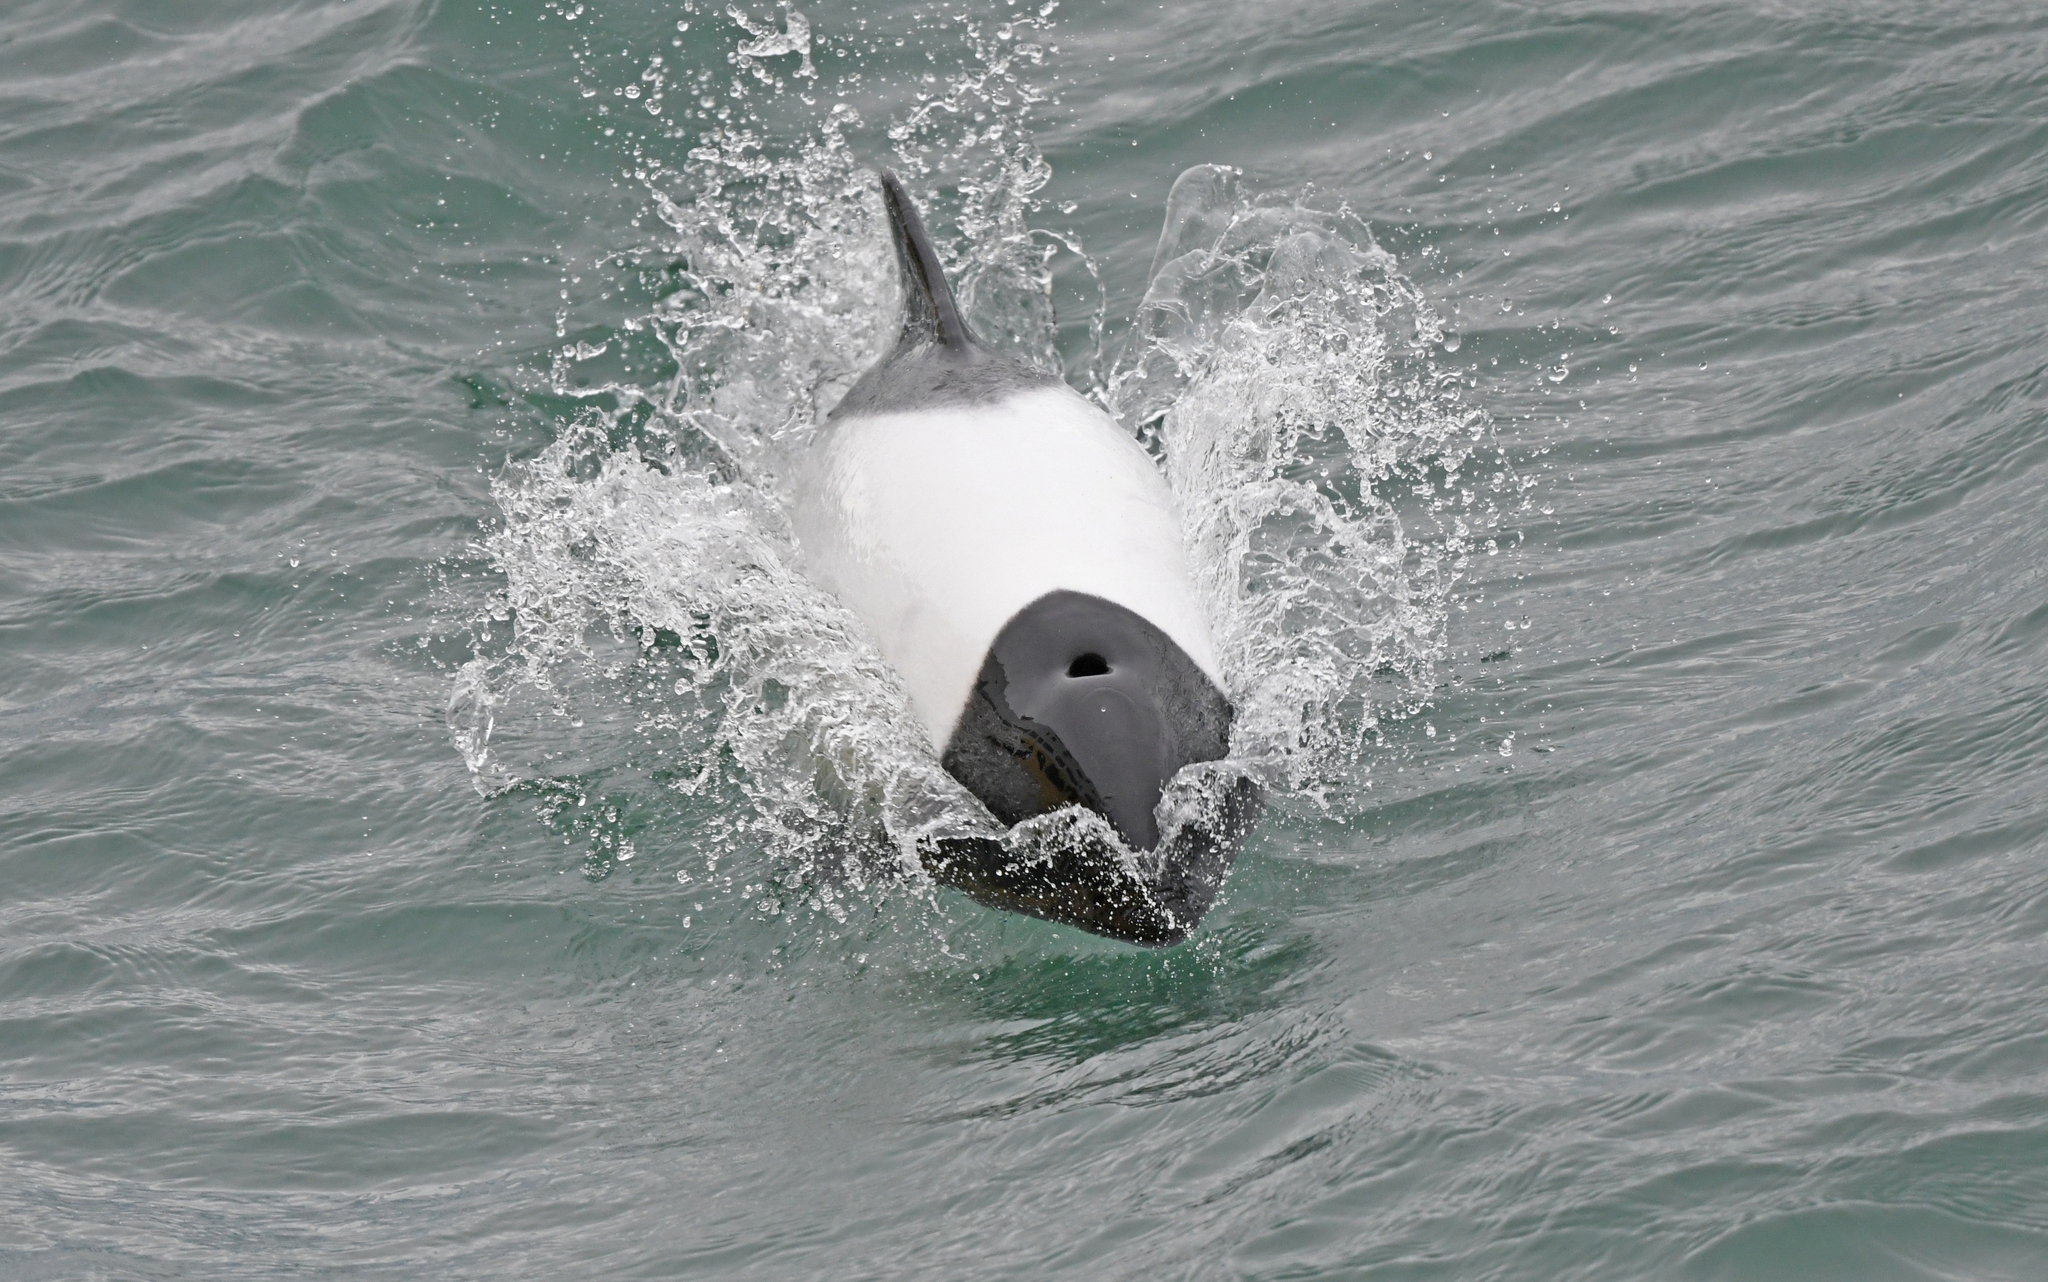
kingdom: Animalia
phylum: Chordata
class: Mammalia
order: Cetacea
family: Delphinidae
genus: Cephalorhynchus
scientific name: Cephalorhynchus commersonii
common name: Commerson's dolphin
